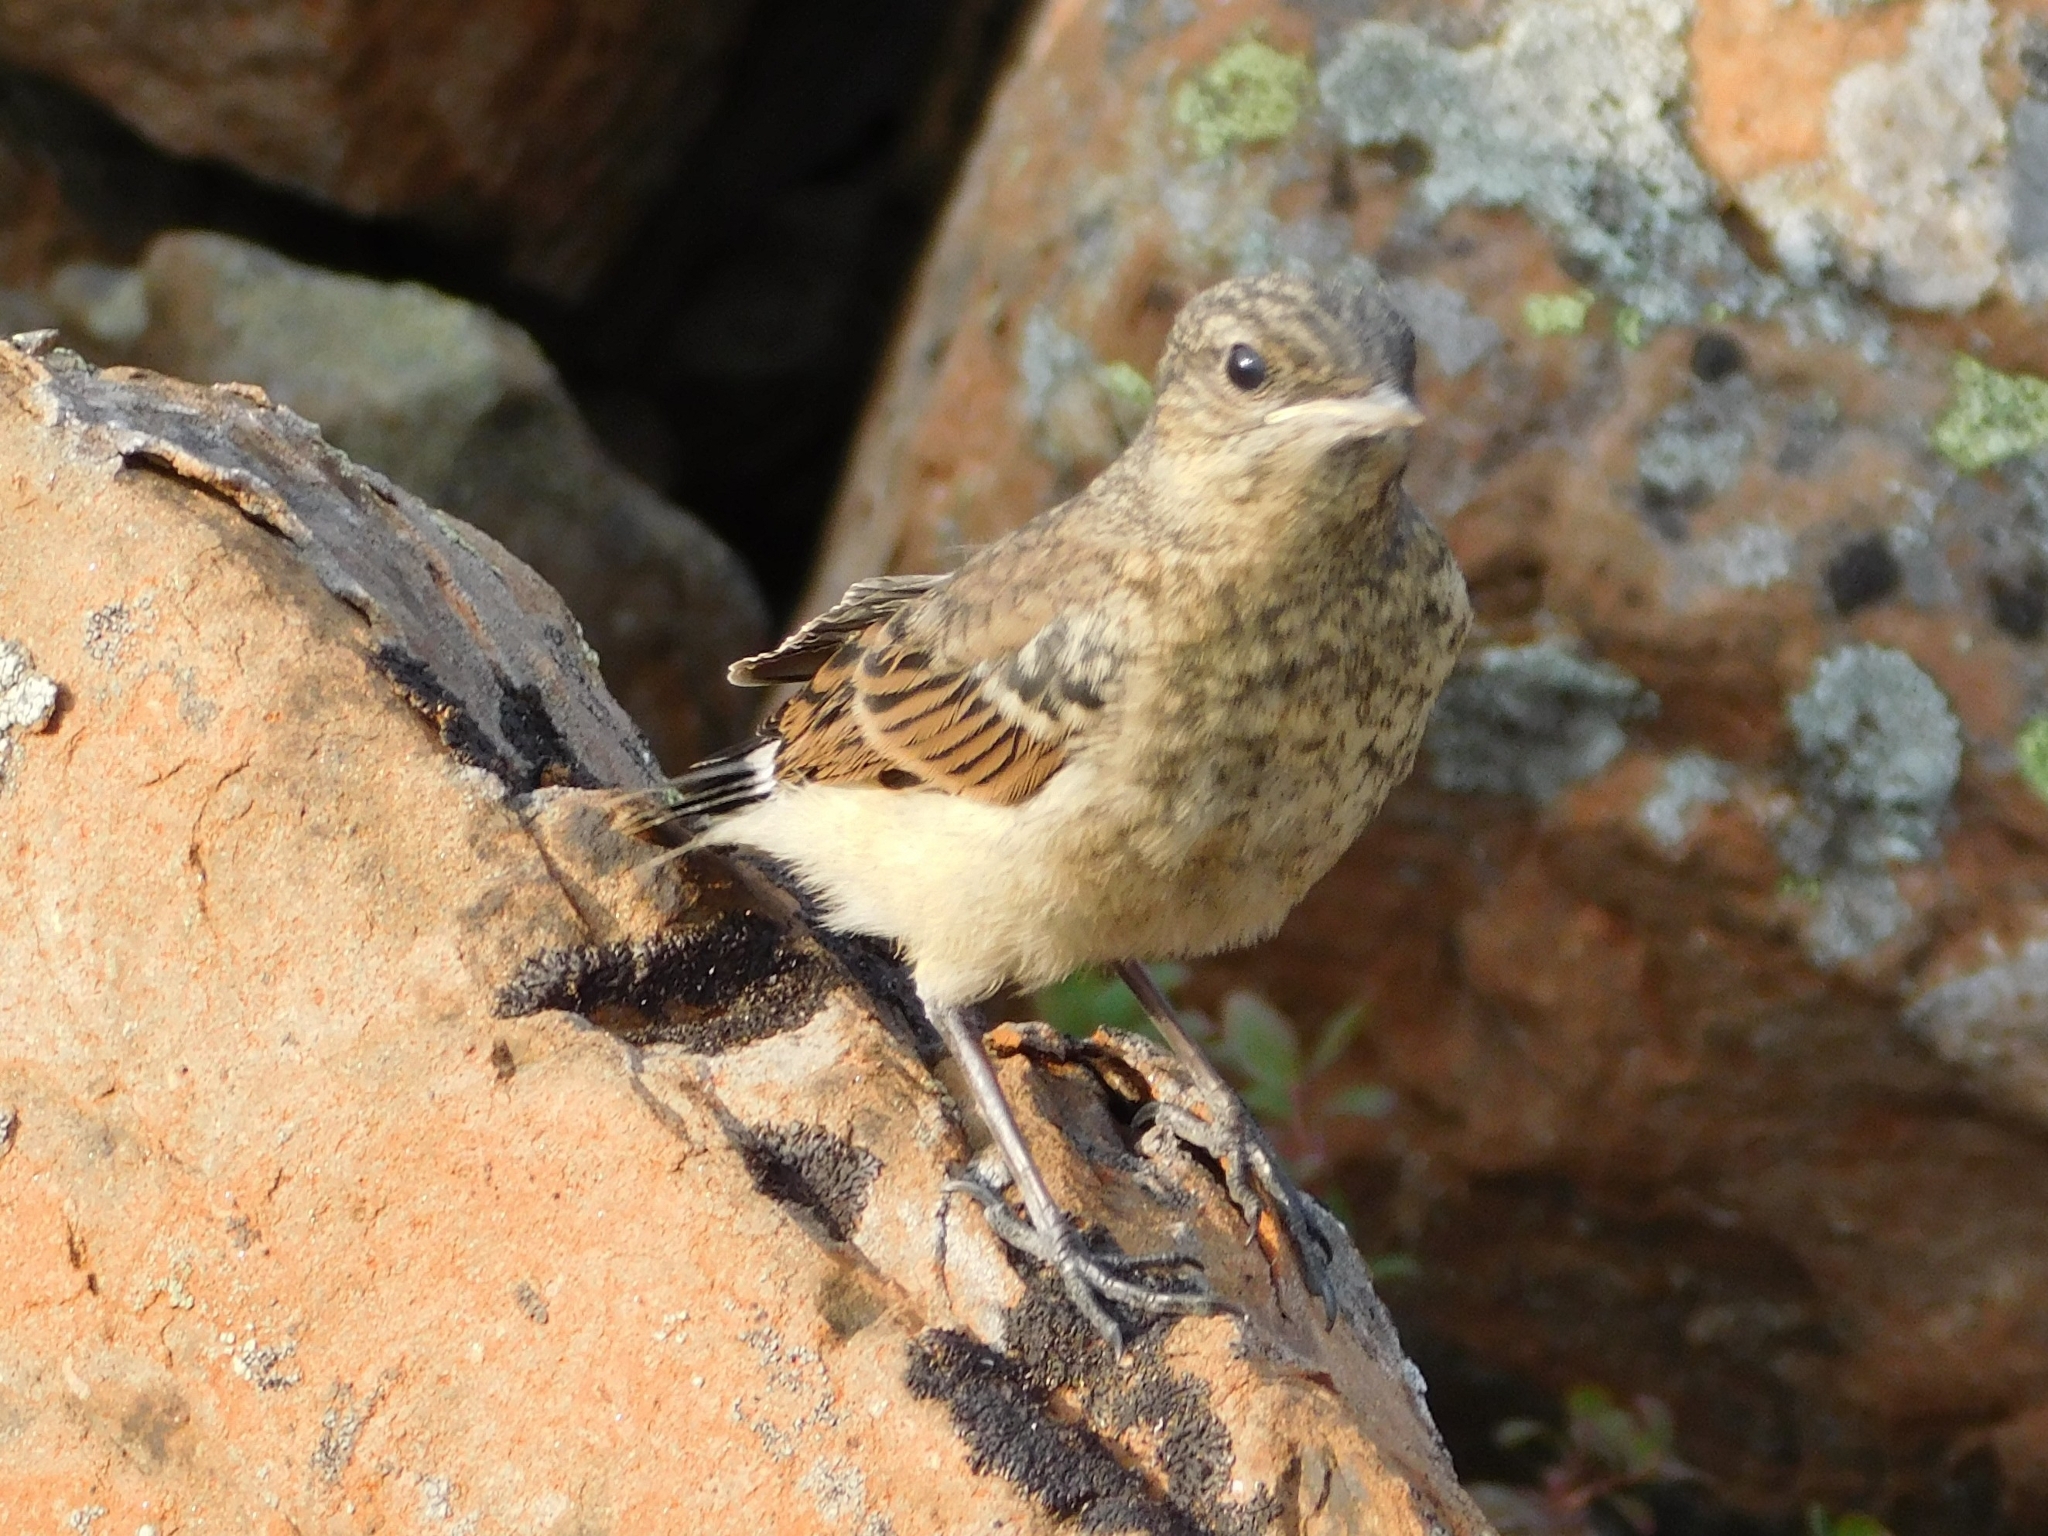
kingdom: Animalia
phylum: Chordata
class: Aves
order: Passeriformes
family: Muscicapidae
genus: Oenanthe
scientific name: Oenanthe oenanthe
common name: Northern wheatear
